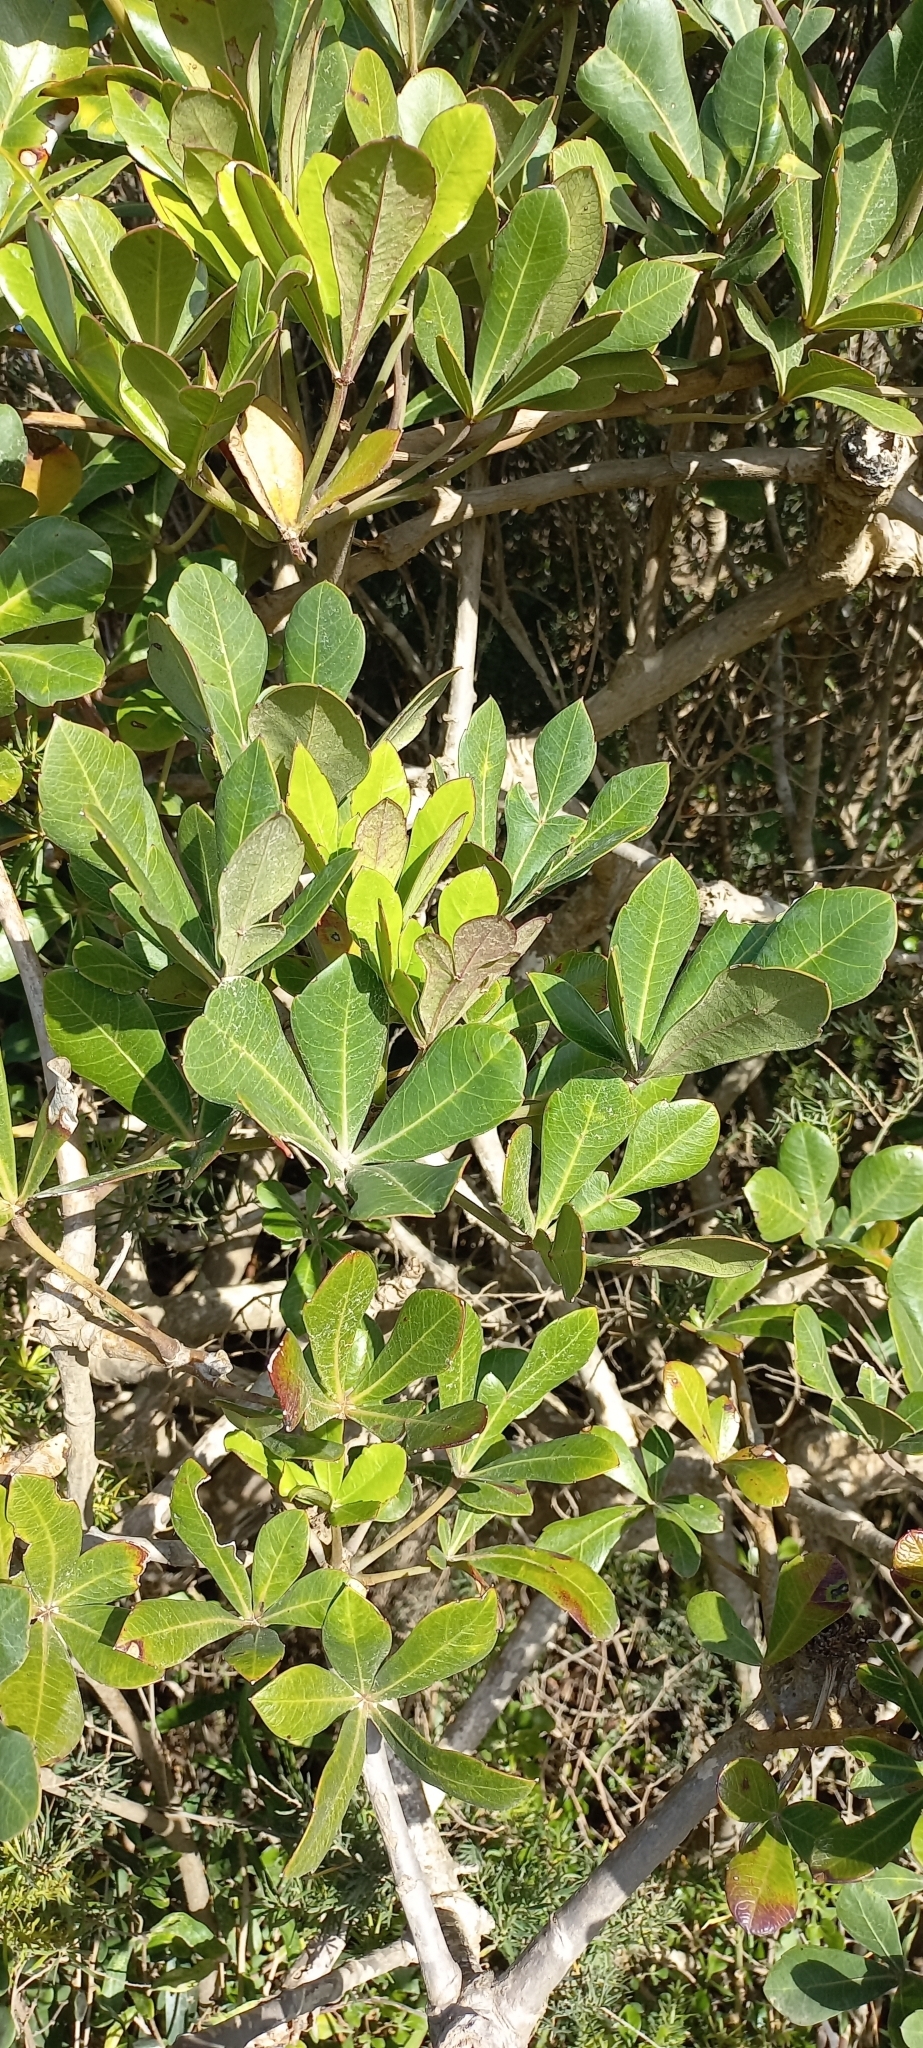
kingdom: Plantae
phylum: Tracheophyta
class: Magnoliopsida
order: Apiales
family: Araliaceae
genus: Cussonia
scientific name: Cussonia thyrsiflora
